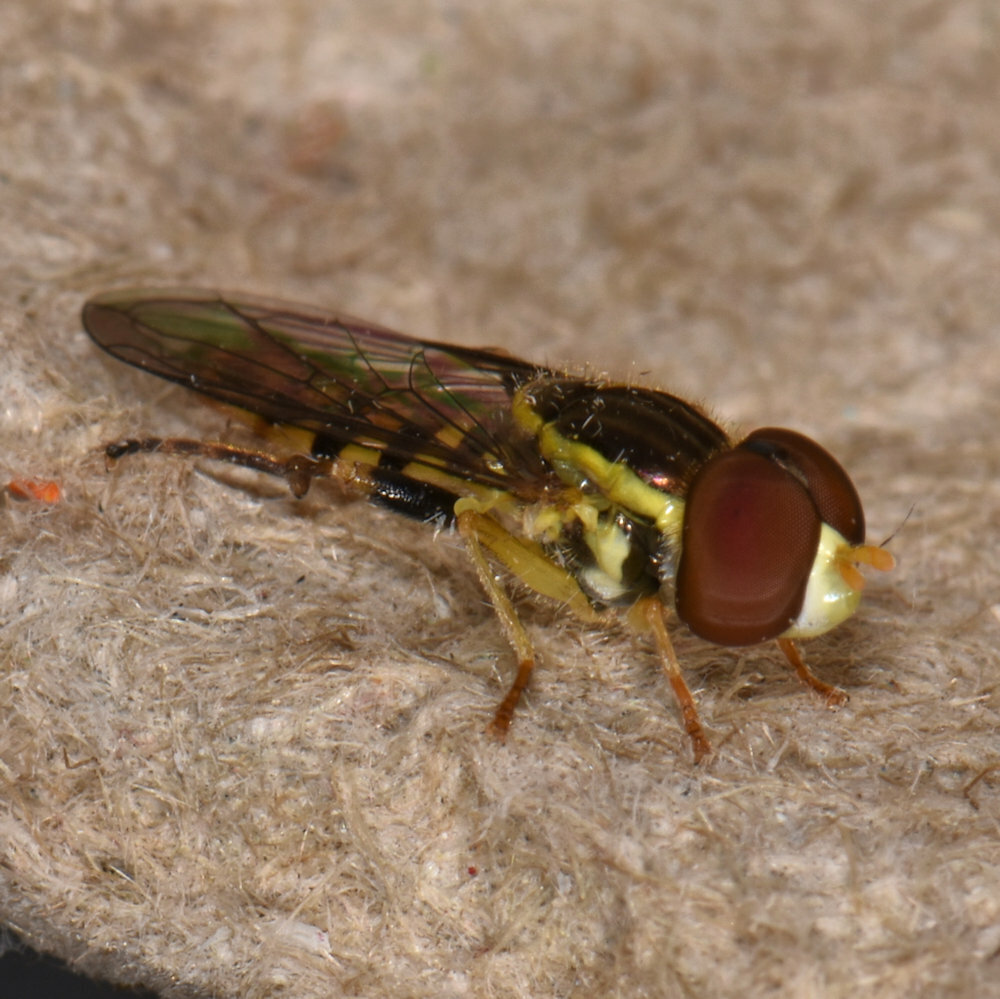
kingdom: Animalia
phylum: Arthropoda
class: Insecta
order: Diptera
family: Syrphidae
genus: Toxomerus
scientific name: Toxomerus geminatus
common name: Eastern calligrapher
